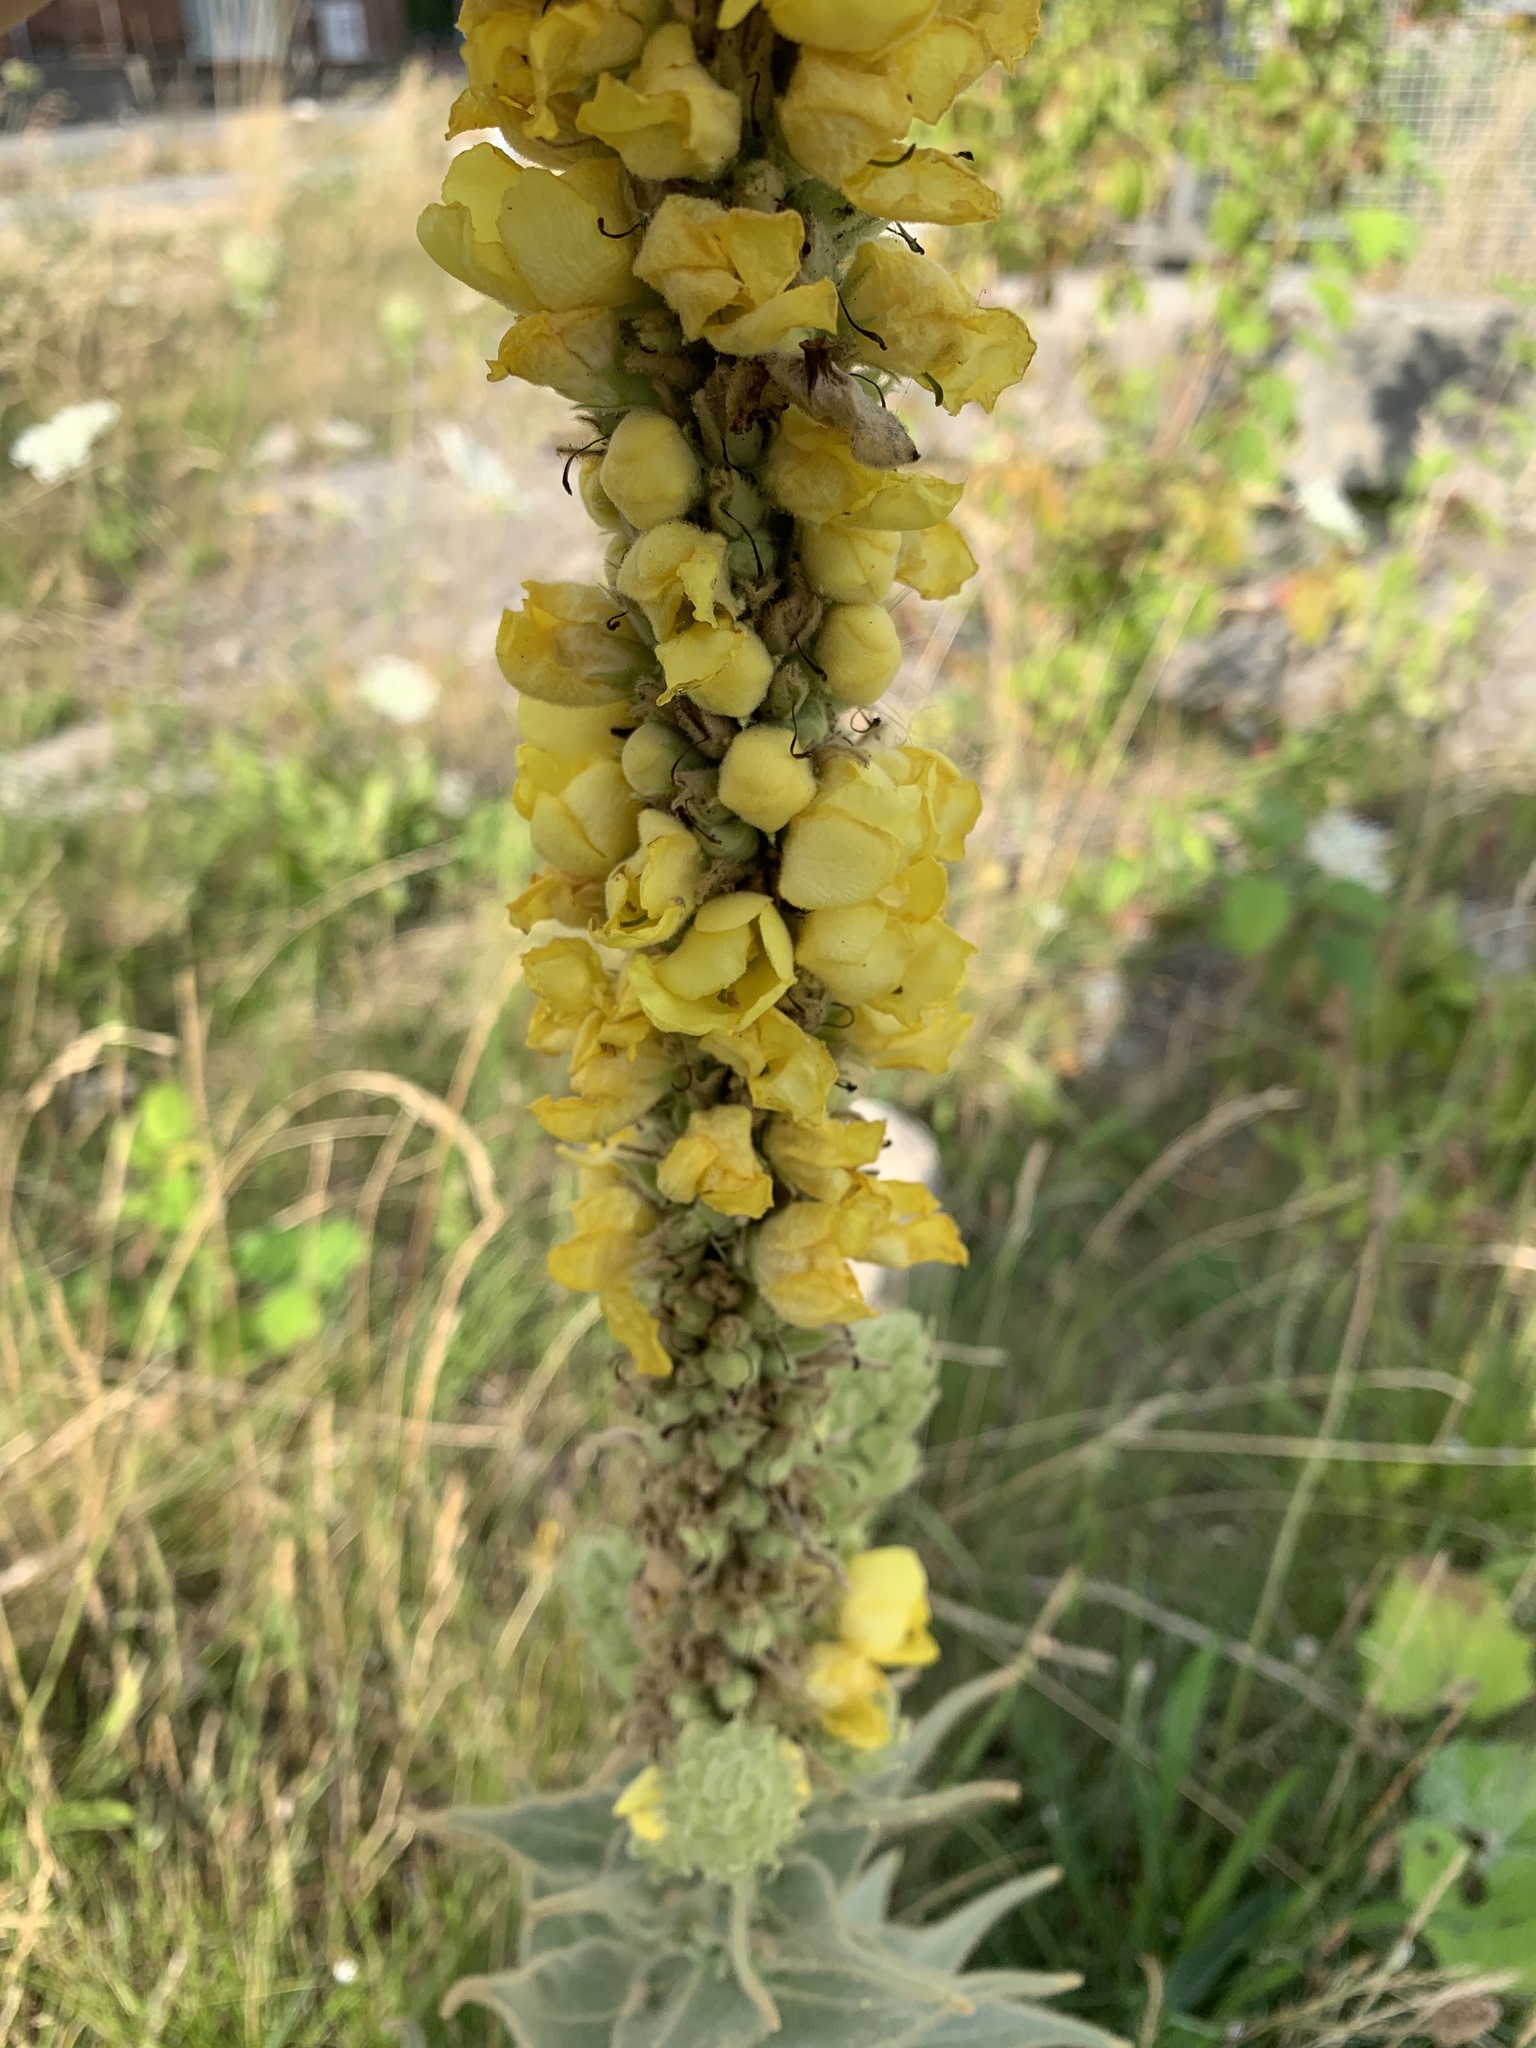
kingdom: Plantae
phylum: Tracheophyta
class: Magnoliopsida
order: Lamiales
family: Scrophulariaceae
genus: Verbascum
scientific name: Verbascum densiflorum
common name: Dense-flowered mullein
